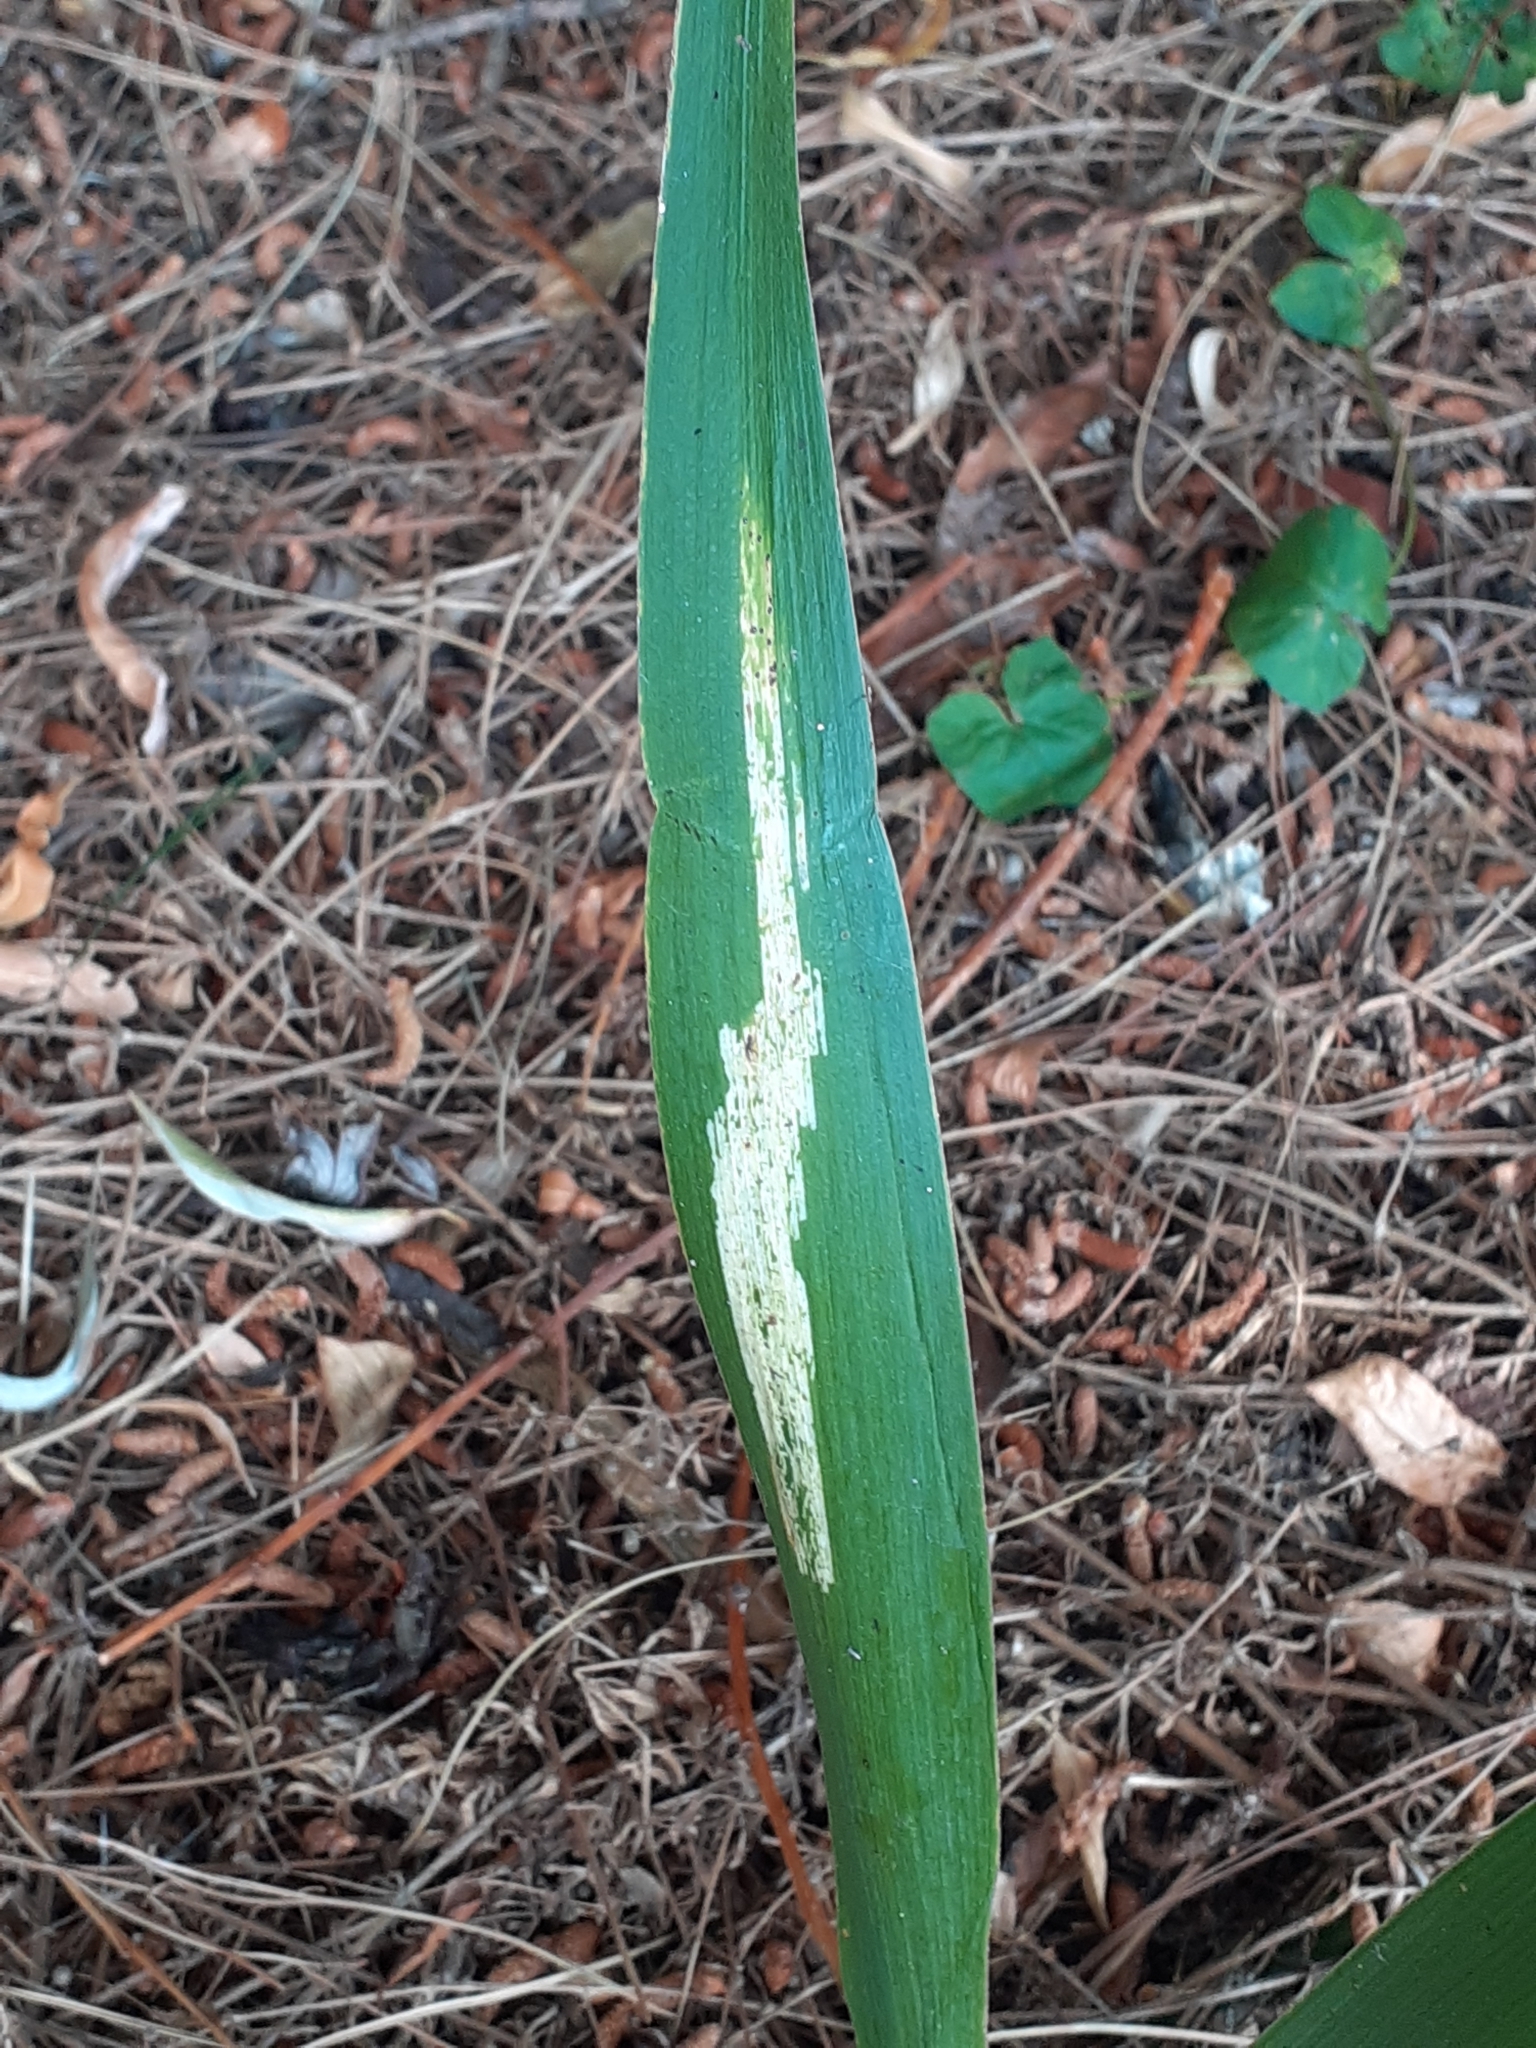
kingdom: Animalia
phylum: Arthropoda
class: Insecta
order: Diptera
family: Agromyzidae
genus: Phytobia
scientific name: Phytobia iridis
